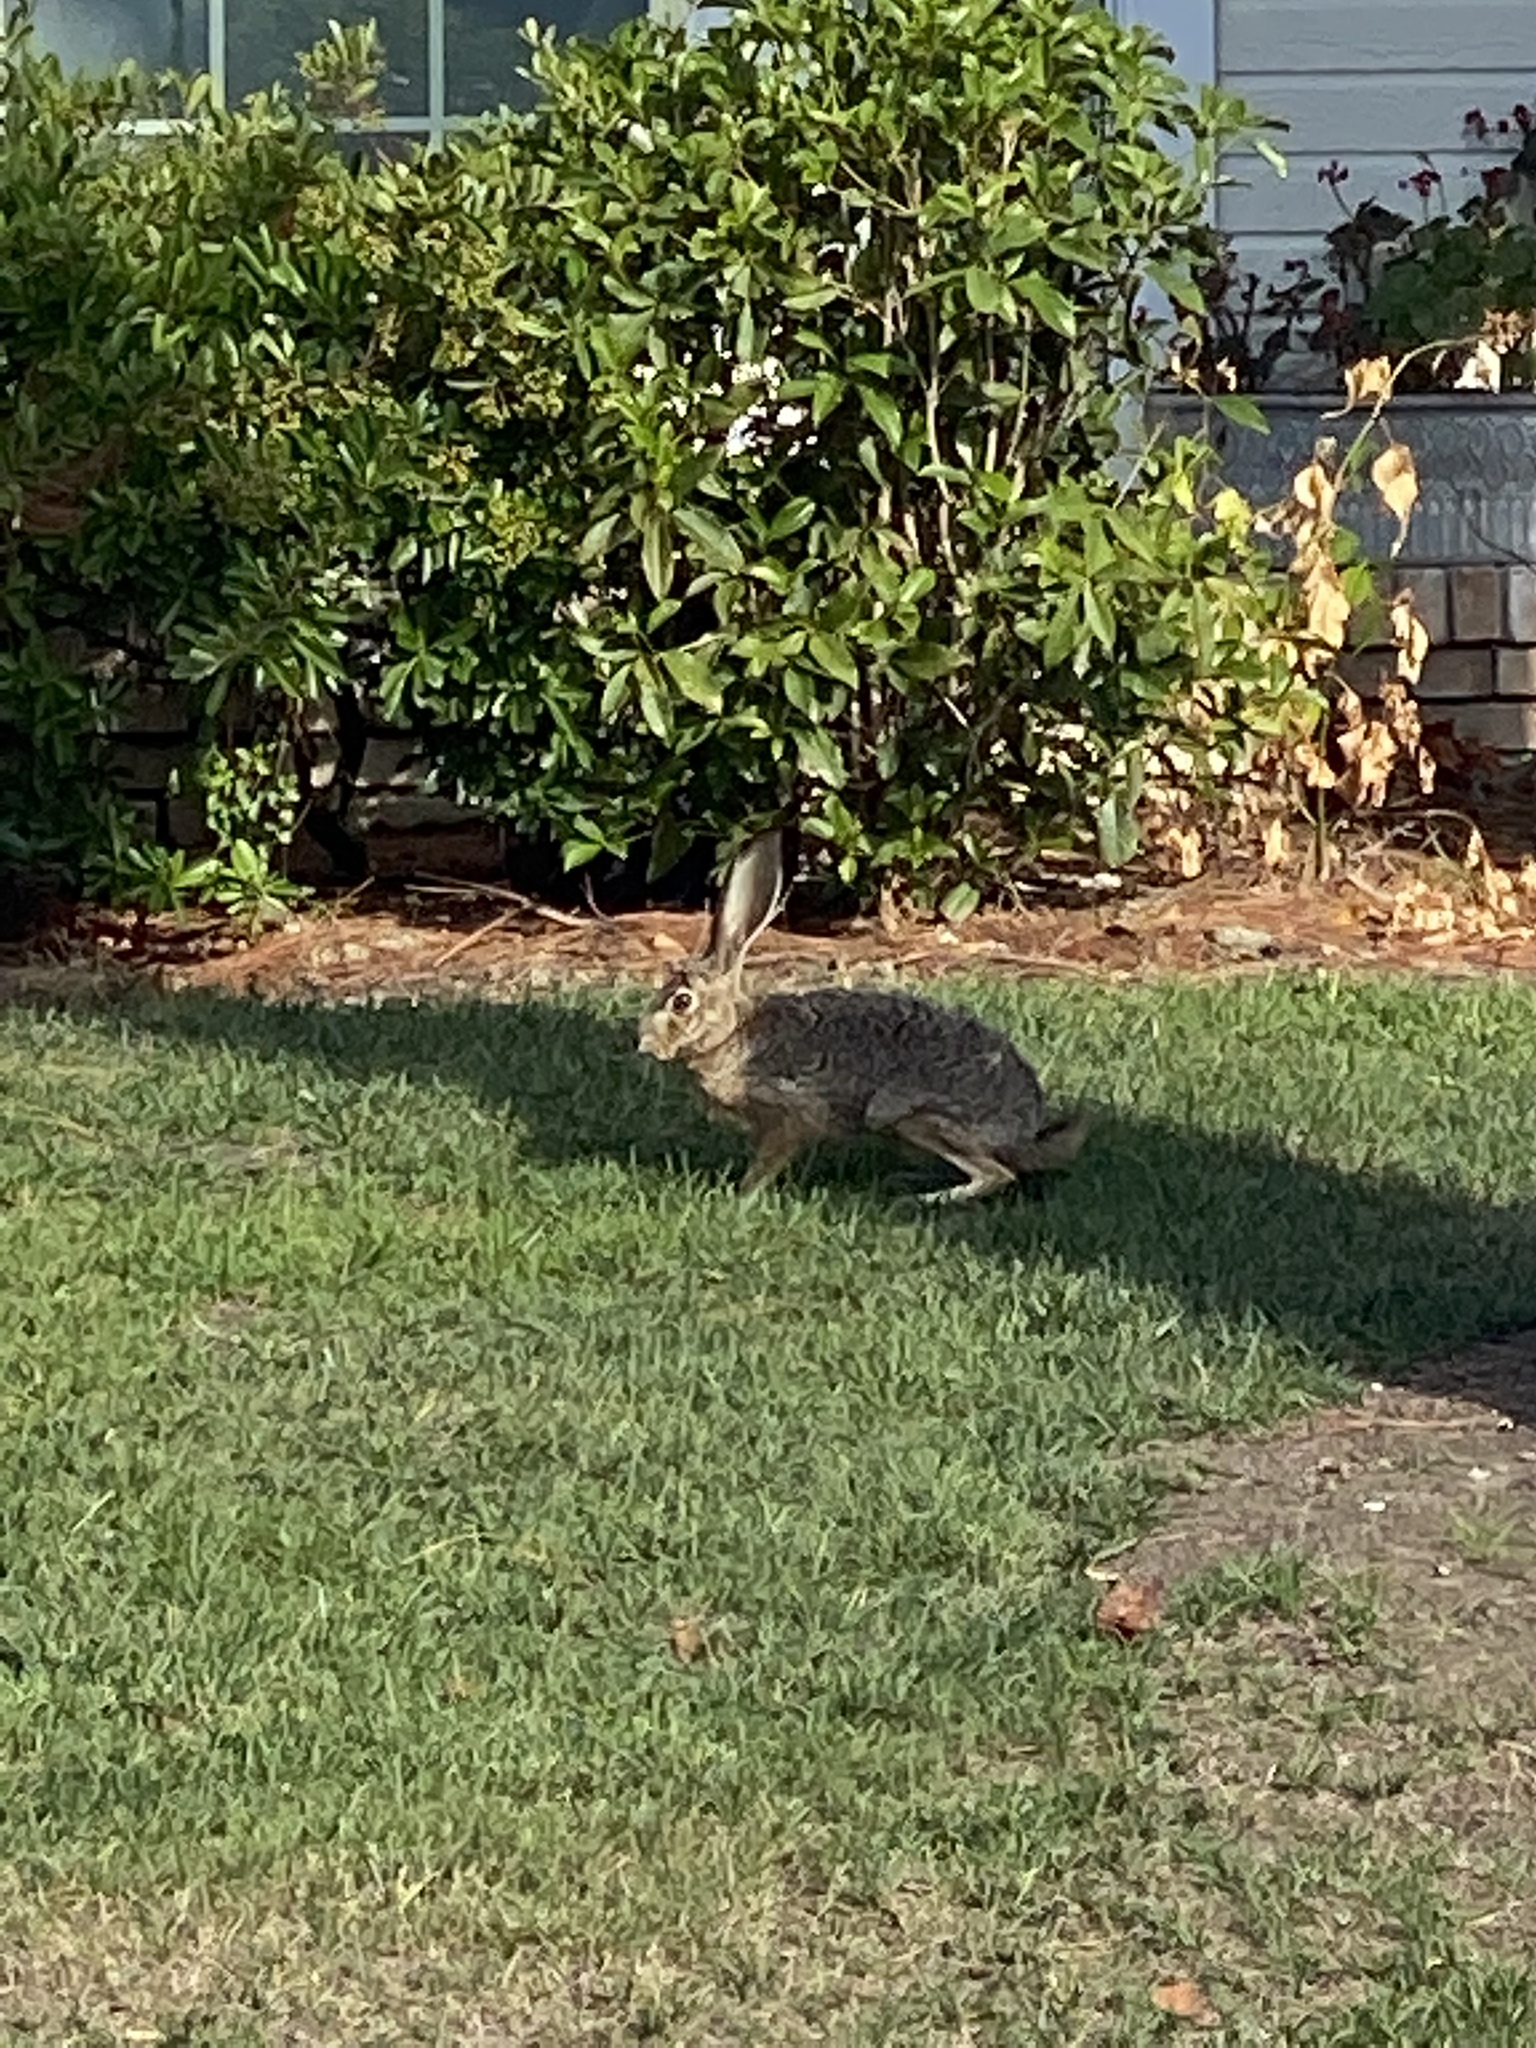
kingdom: Animalia
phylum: Chordata
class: Mammalia
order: Lagomorpha
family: Leporidae
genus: Lepus
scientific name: Lepus californicus
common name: Black-tailed jackrabbit
